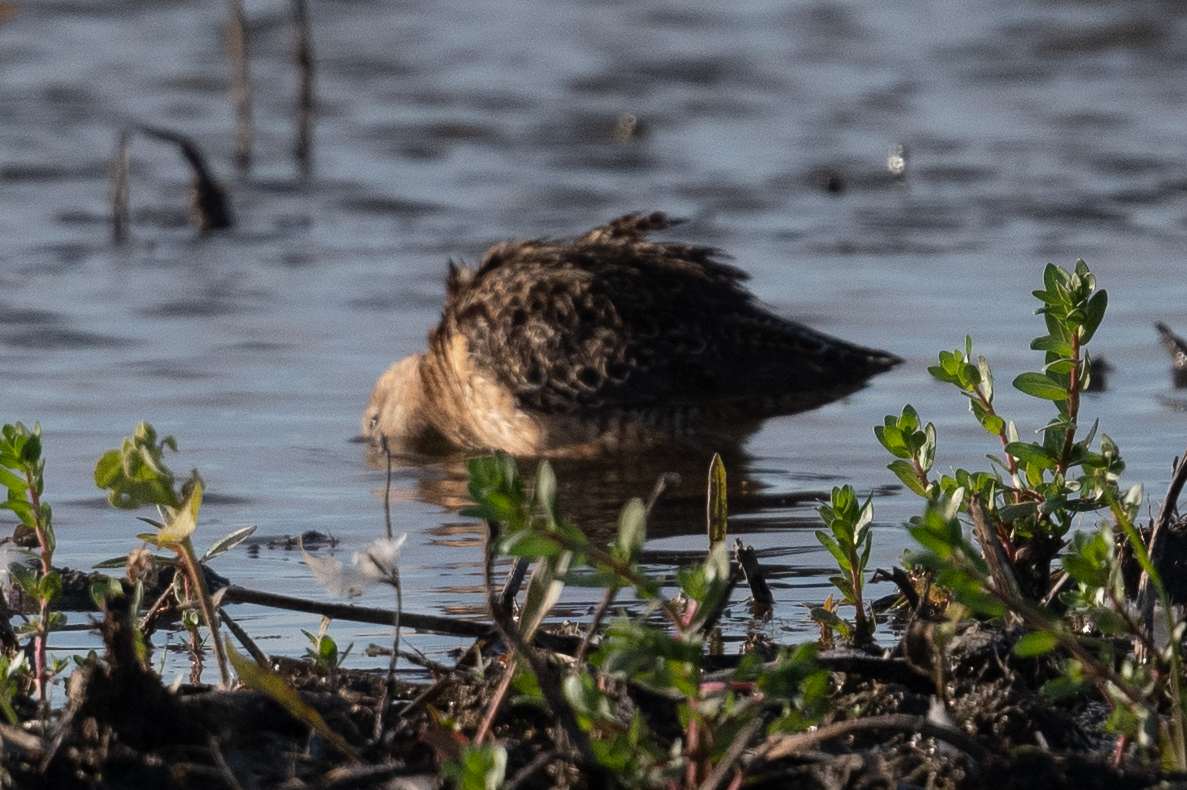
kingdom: Animalia
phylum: Chordata
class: Aves
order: Charadriiformes
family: Scolopacidae
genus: Limnodromus
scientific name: Limnodromus scolopaceus
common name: Long-billed dowitcher
